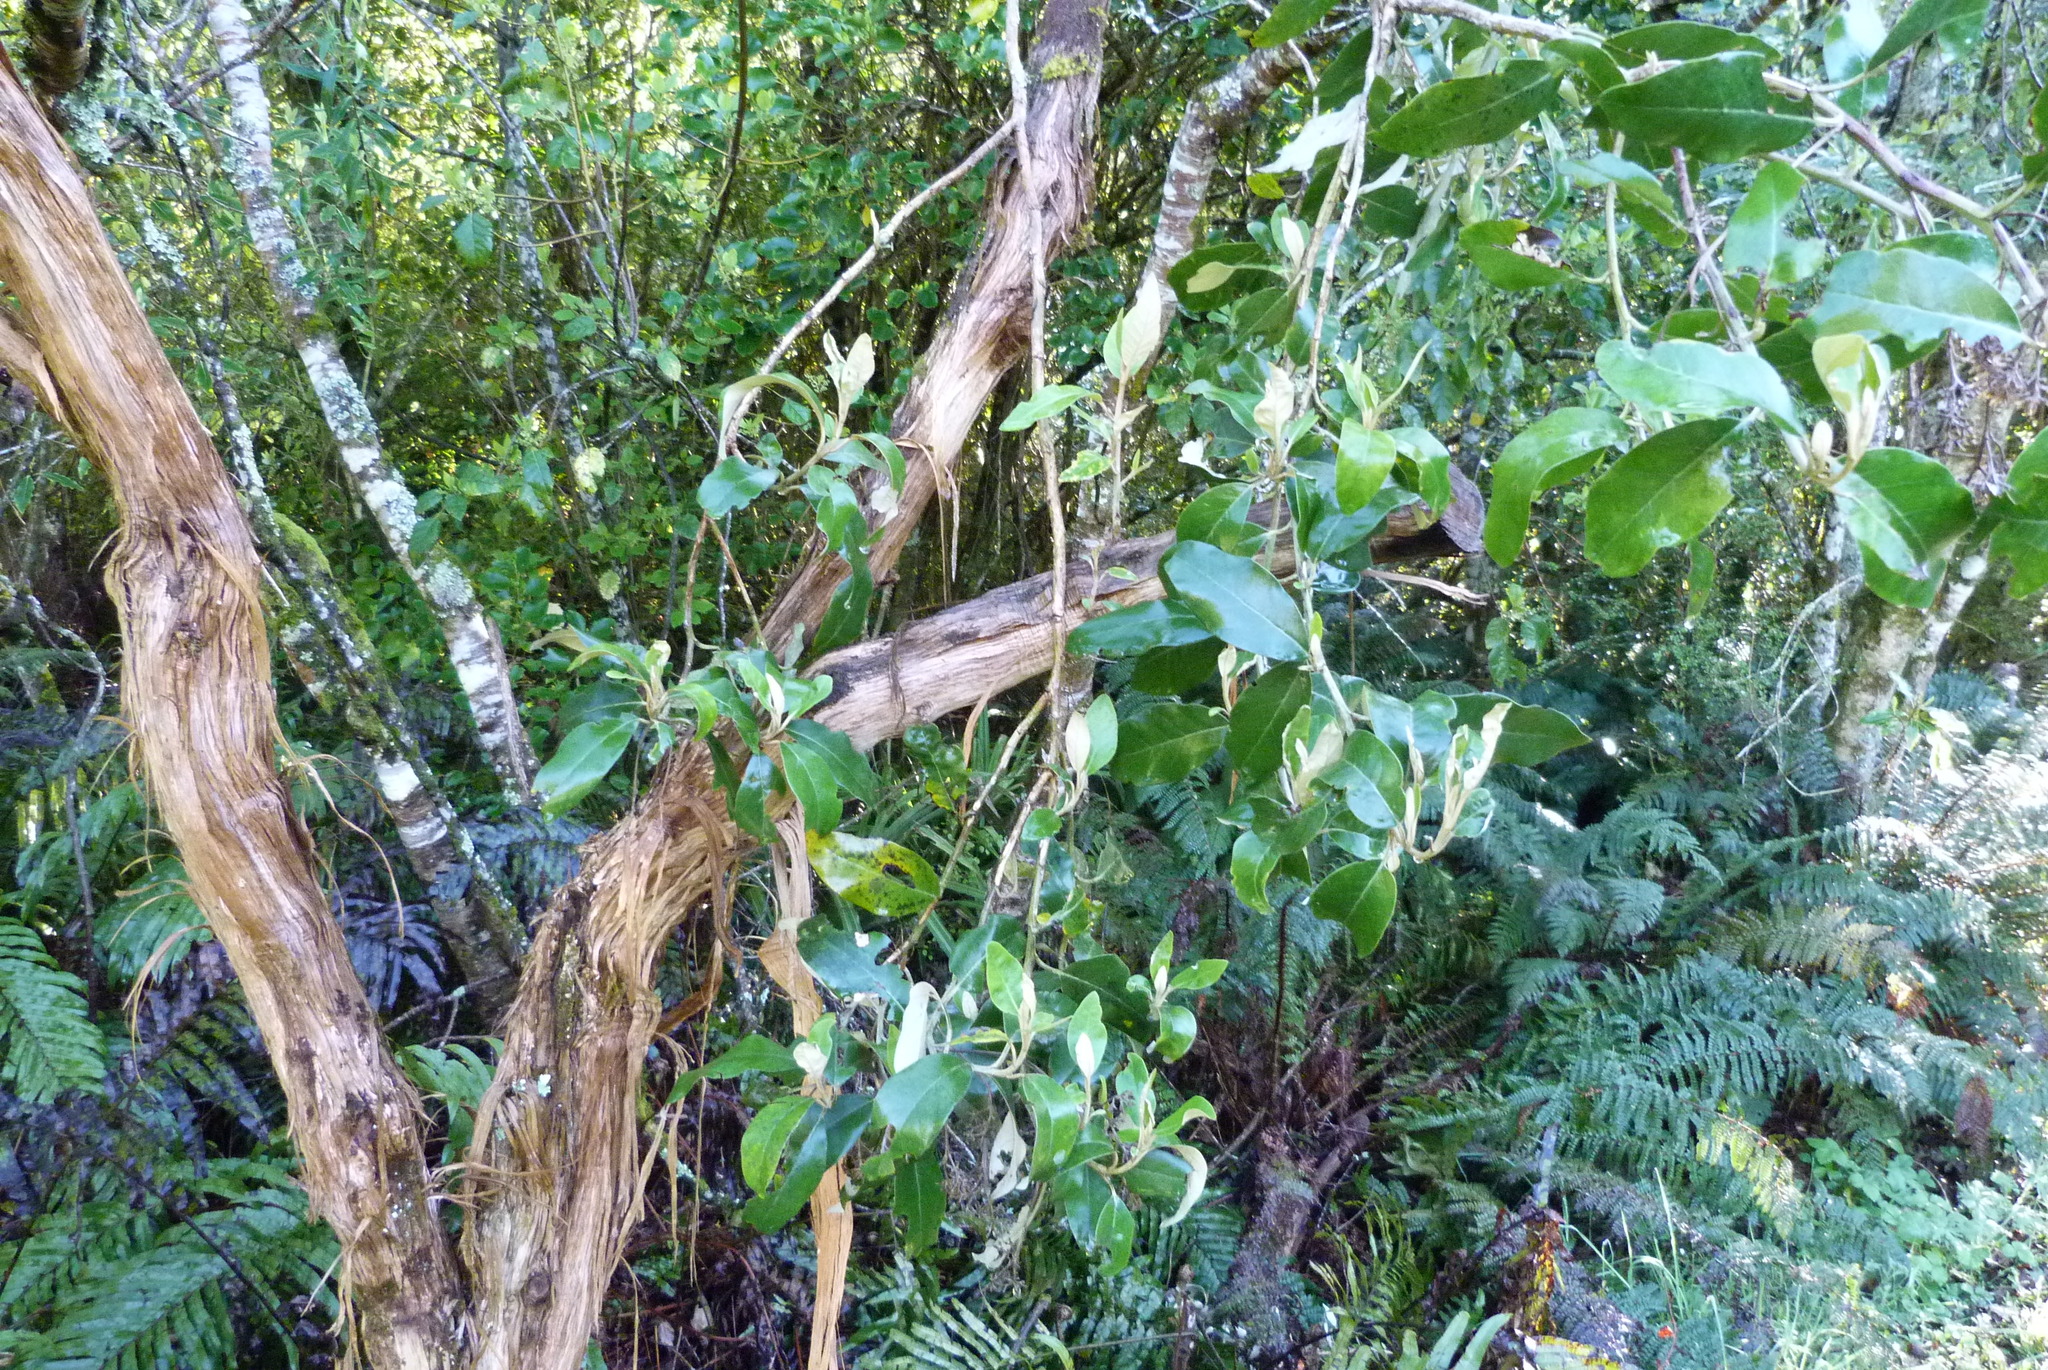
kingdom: Plantae
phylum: Tracheophyta
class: Magnoliopsida
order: Asterales
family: Asteraceae
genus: Olearia
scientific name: Olearia avicenniifolia
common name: Mangrove-leaf daisybush
